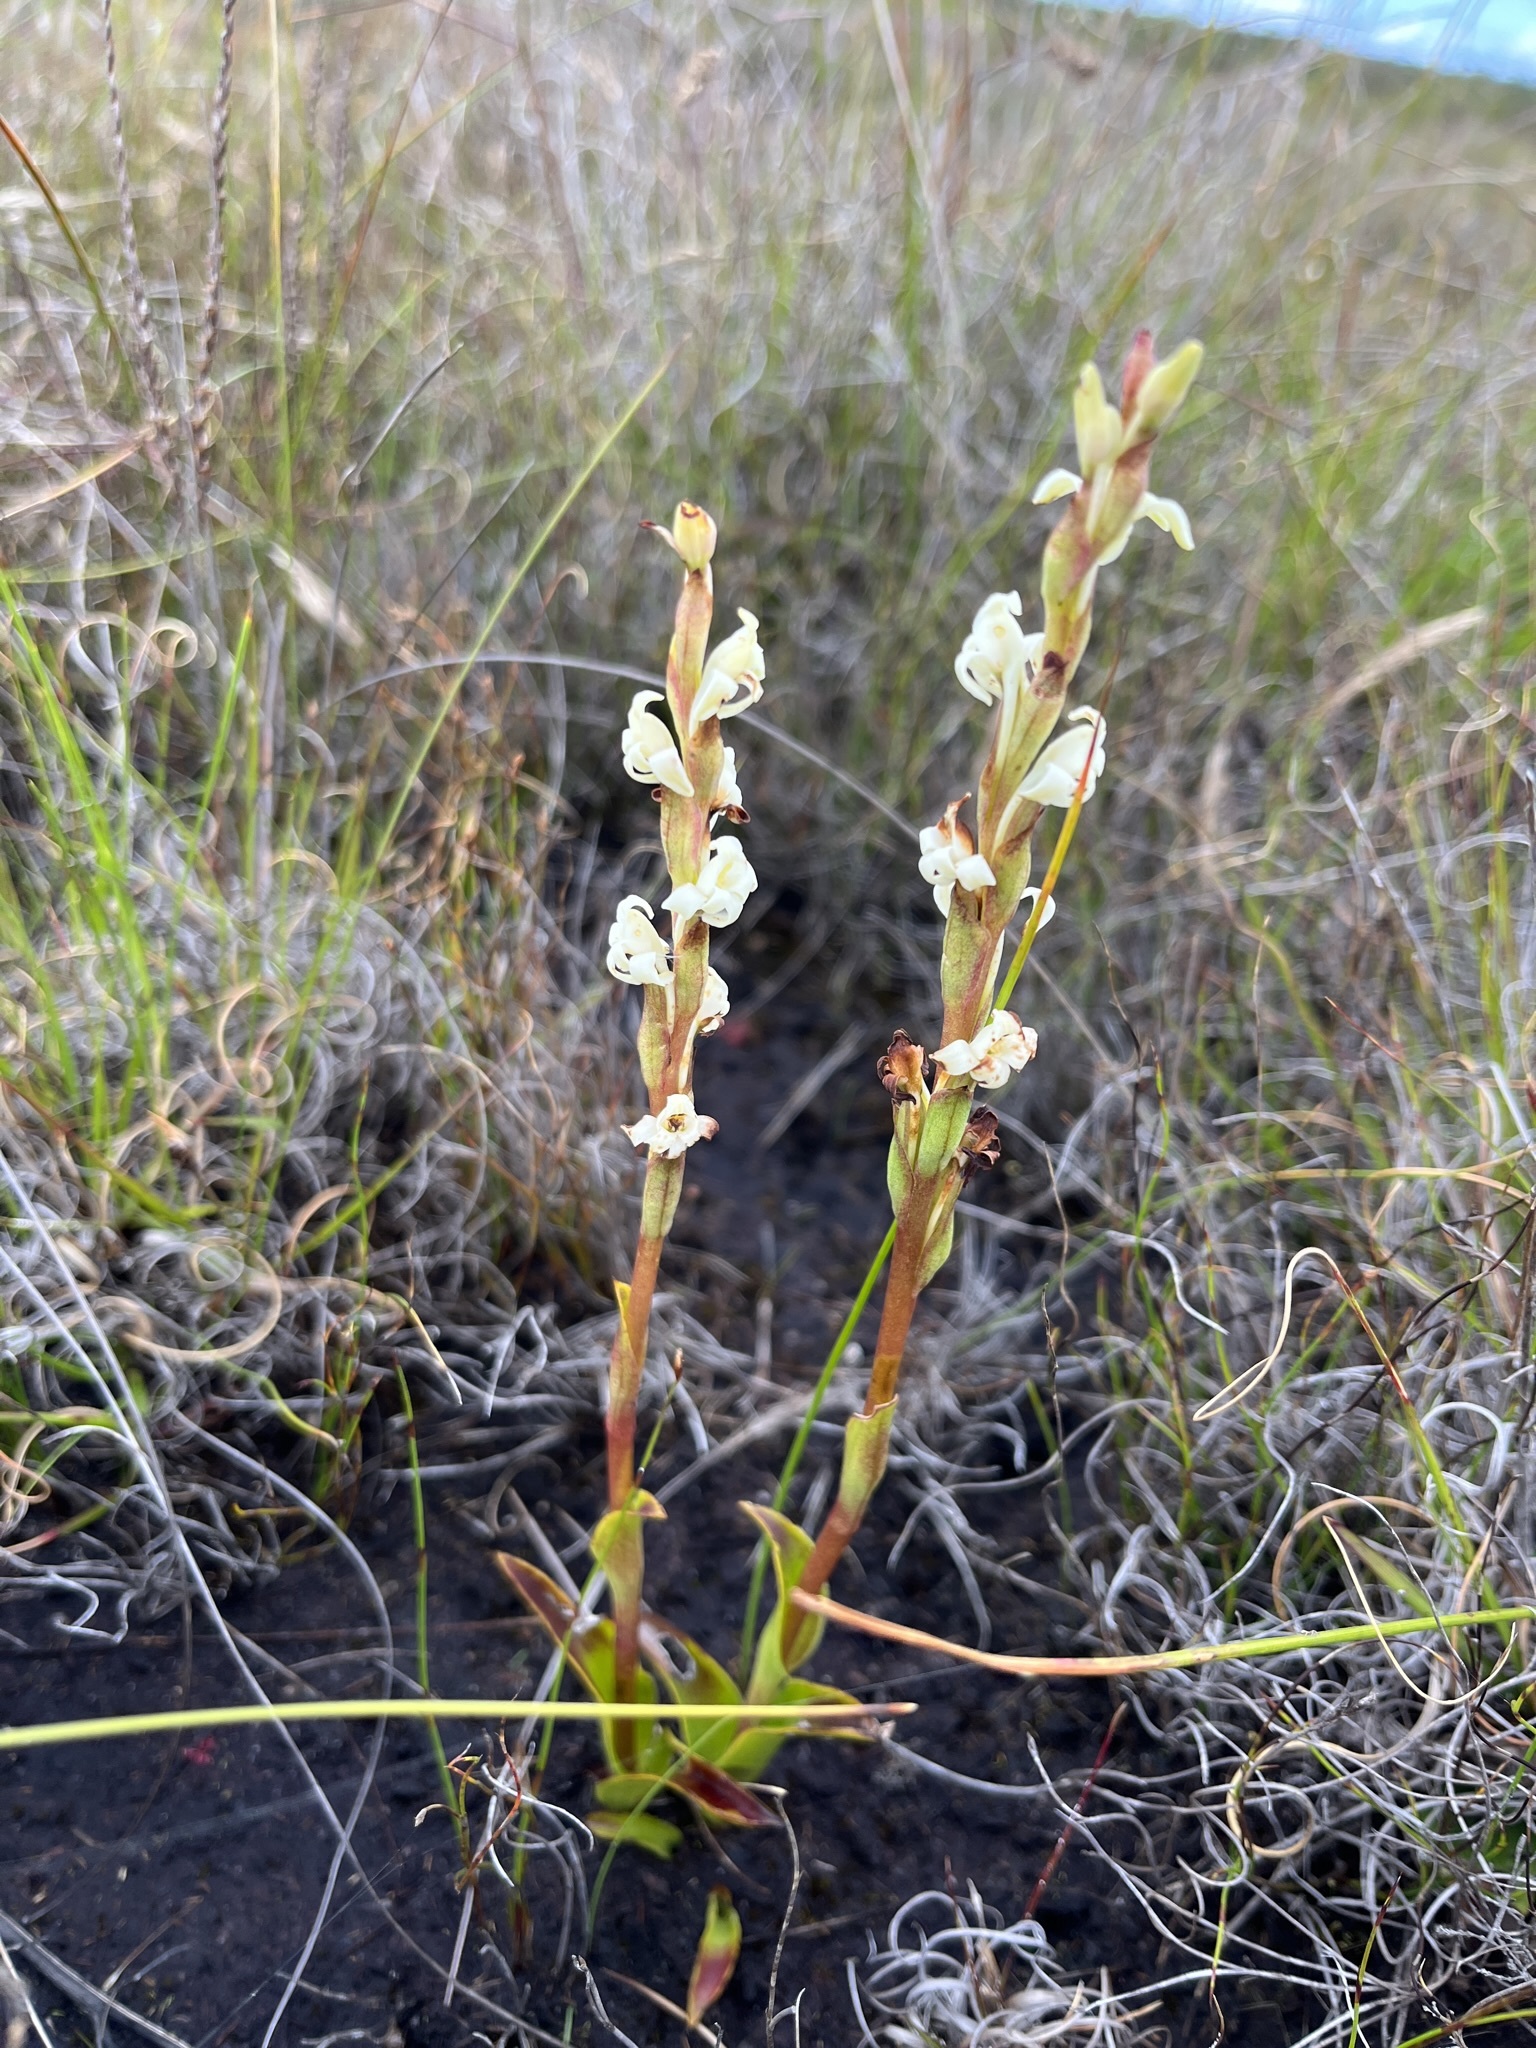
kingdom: Plantae
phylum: Tracheophyta
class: Liliopsida
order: Asparagales
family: Orchidaceae
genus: Satyrium
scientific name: Satyrium stenopetalum
